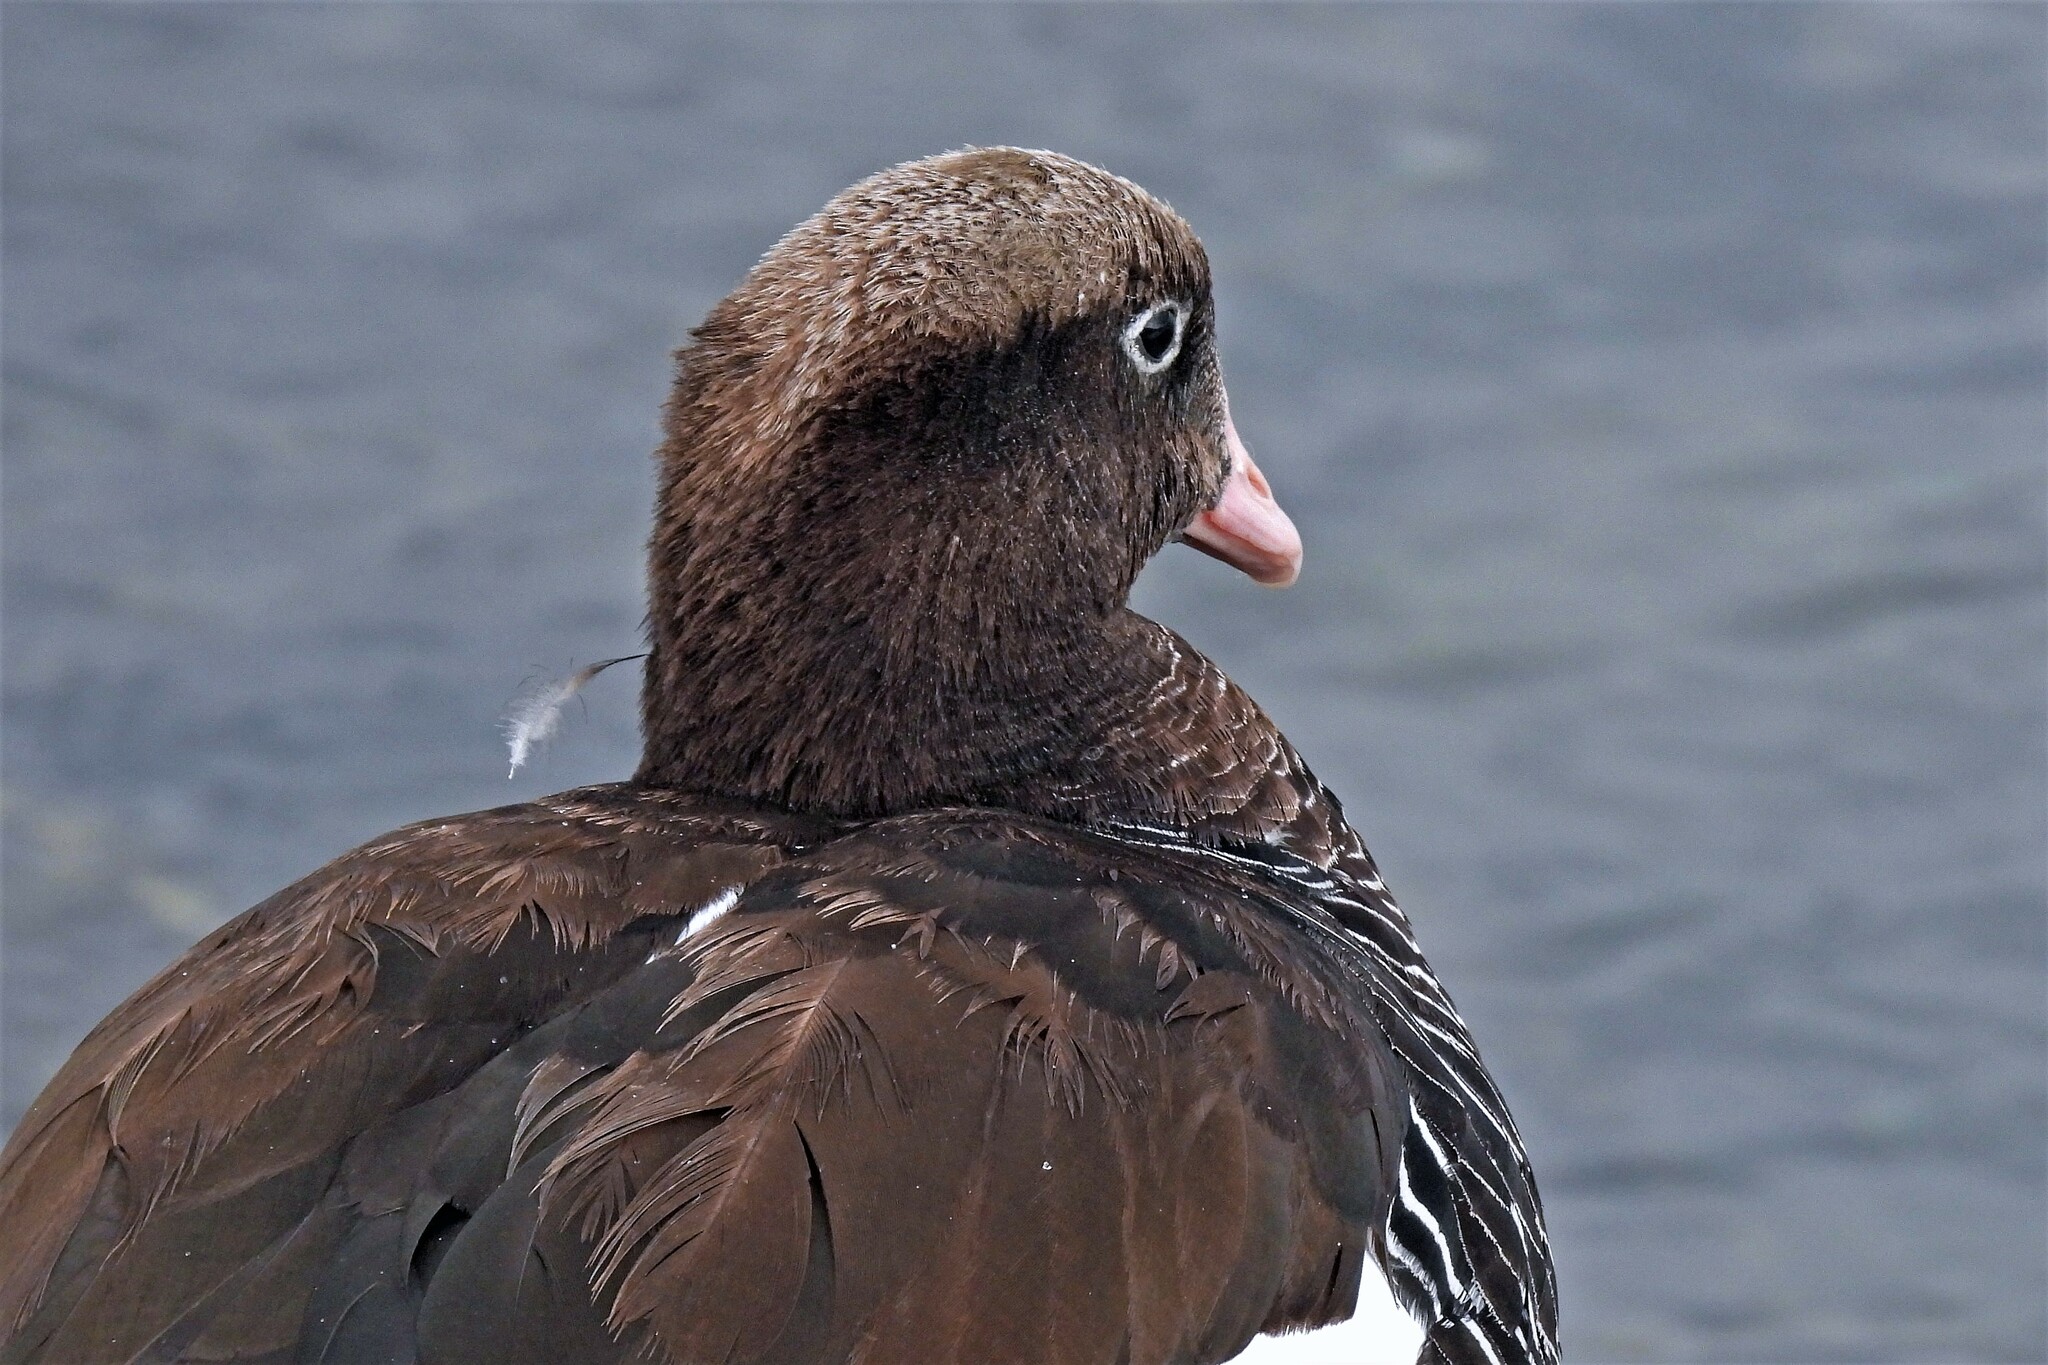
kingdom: Animalia
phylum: Chordata
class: Aves
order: Anseriformes
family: Anatidae
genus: Chloephaga
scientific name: Chloephaga hybrida
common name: Kelp goose
